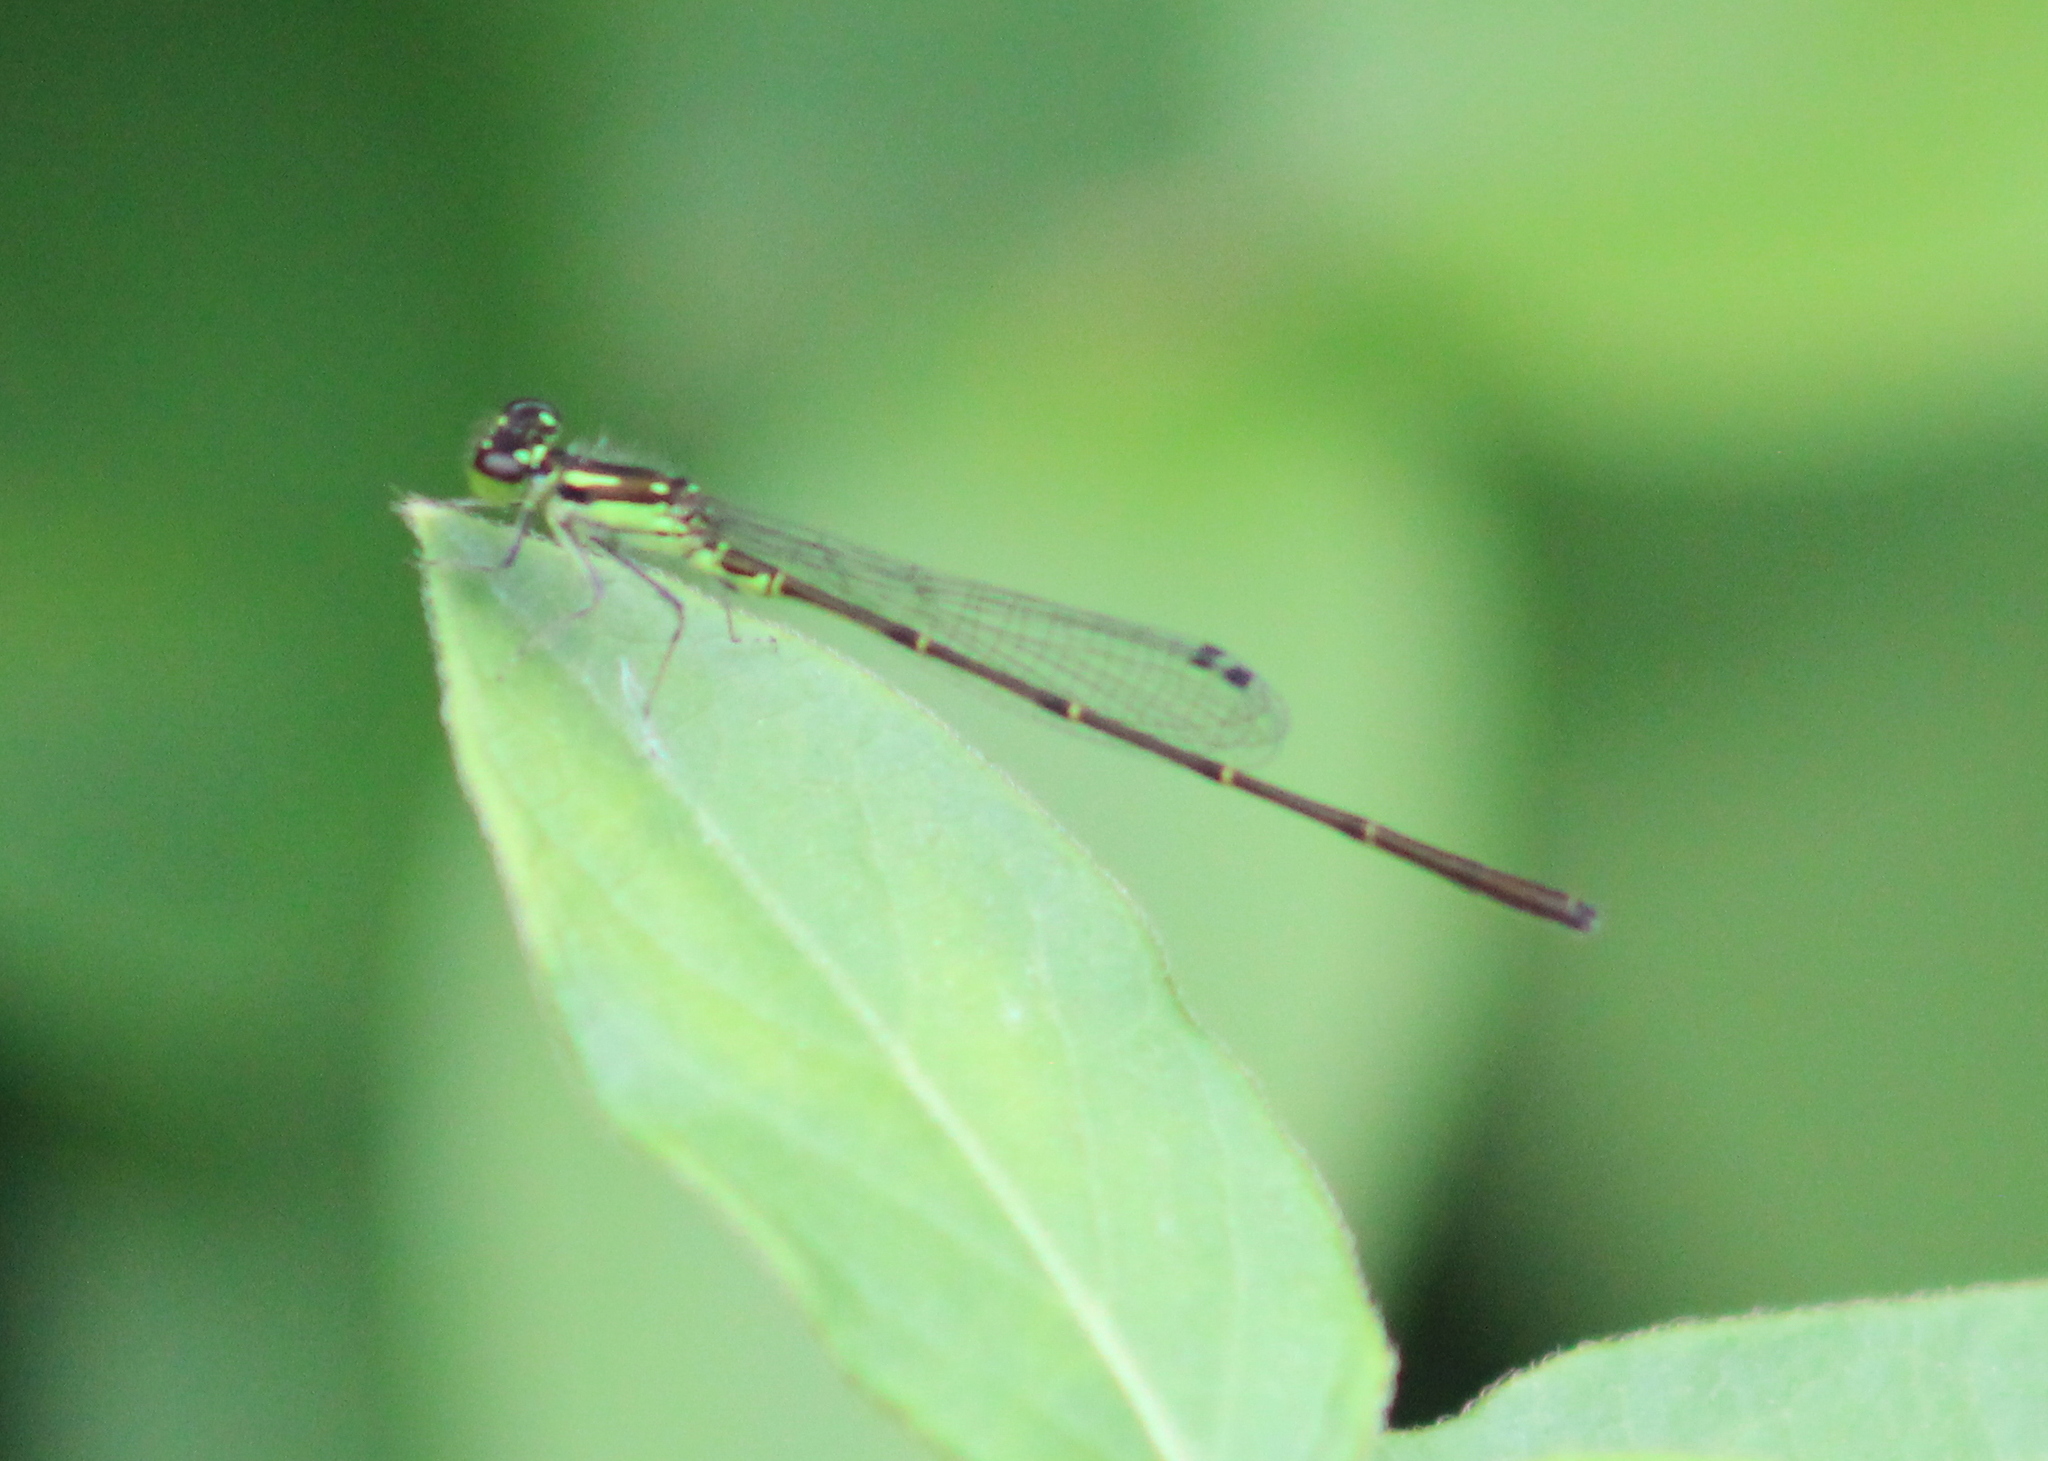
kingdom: Animalia
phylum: Arthropoda
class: Insecta
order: Odonata
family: Coenagrionidae
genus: Ischnura
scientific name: Ischnura posita
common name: Fragile forktail
